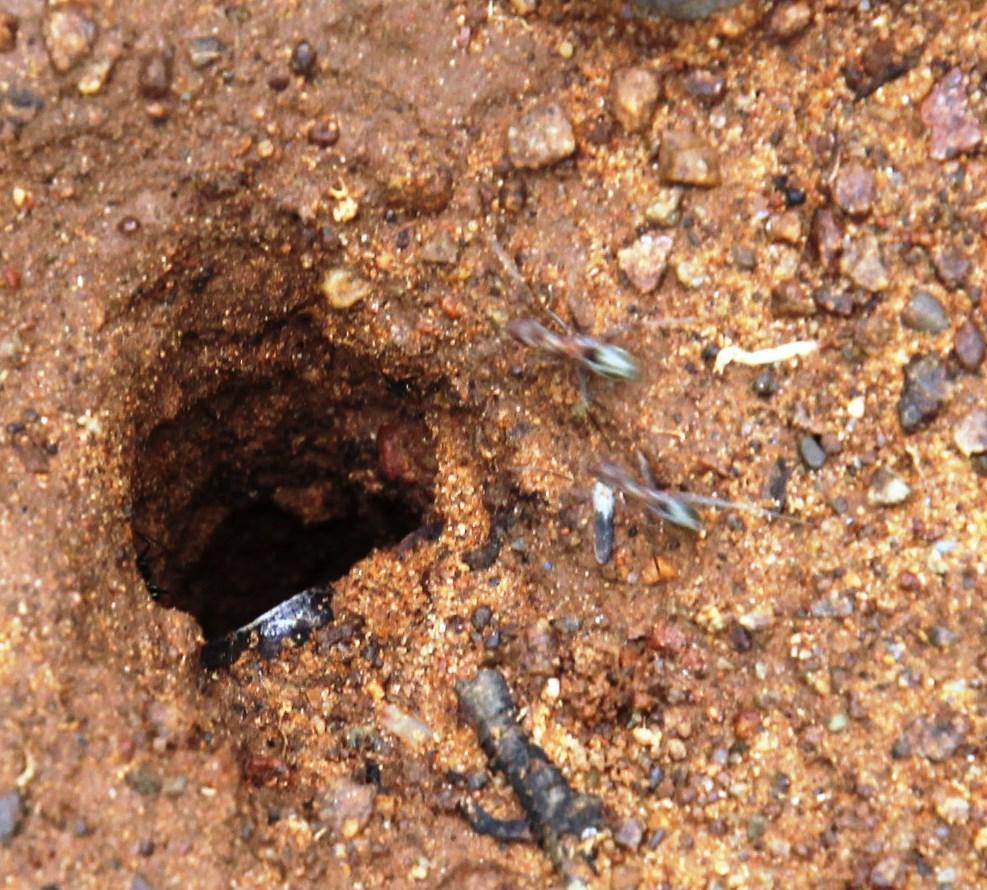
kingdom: Animalia
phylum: Arthropoda
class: Insecta
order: Hymenoptera
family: Formicidae
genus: Anoplolepis
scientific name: Anoplolepis custodiens
